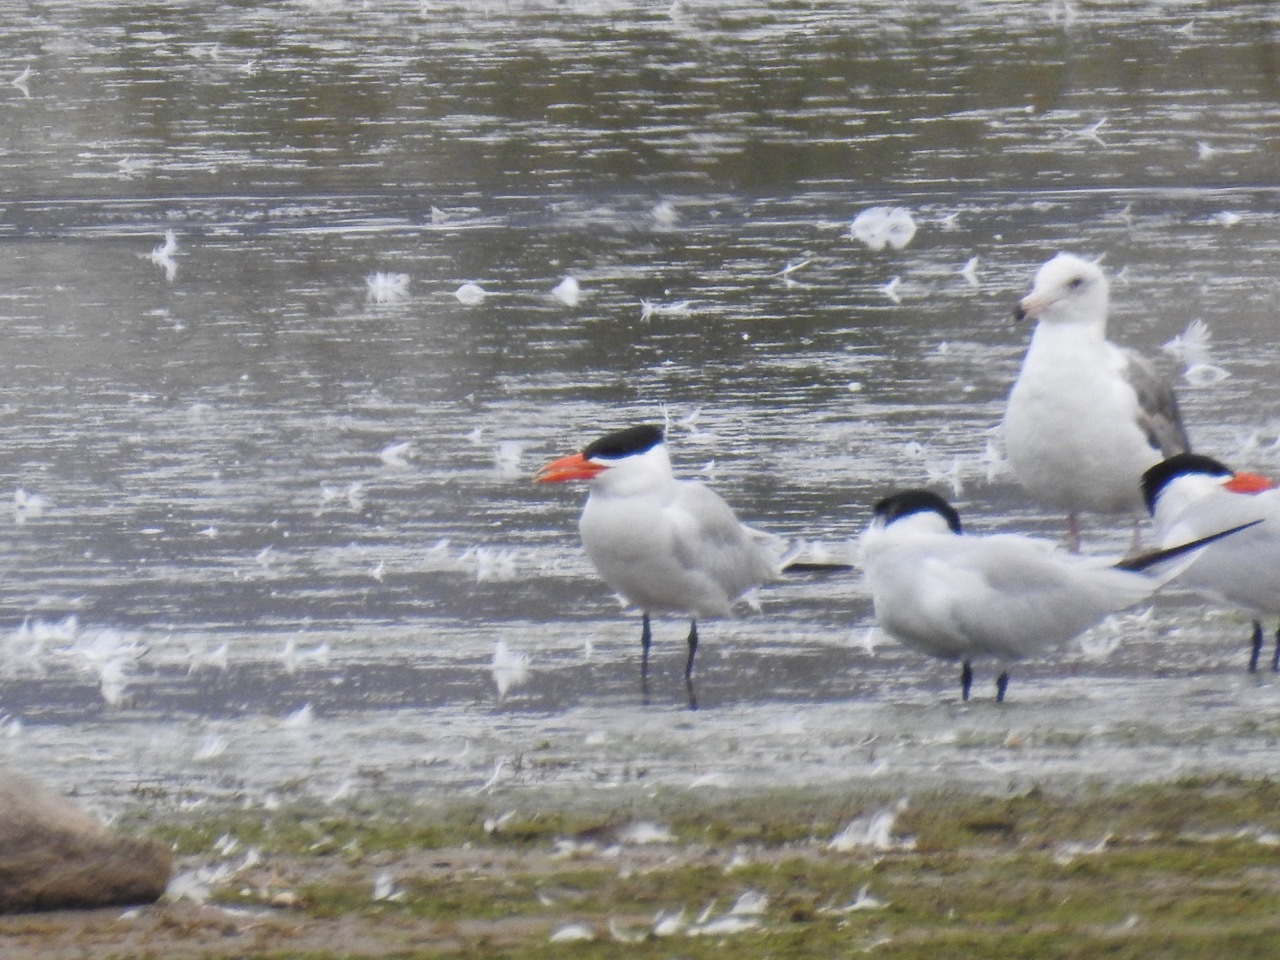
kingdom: Animalia
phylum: Chordata
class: Aves
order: Charadriiformes
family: Laridae
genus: Hydroprogne
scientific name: Hydroprogne caspia
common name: Caspian tern
